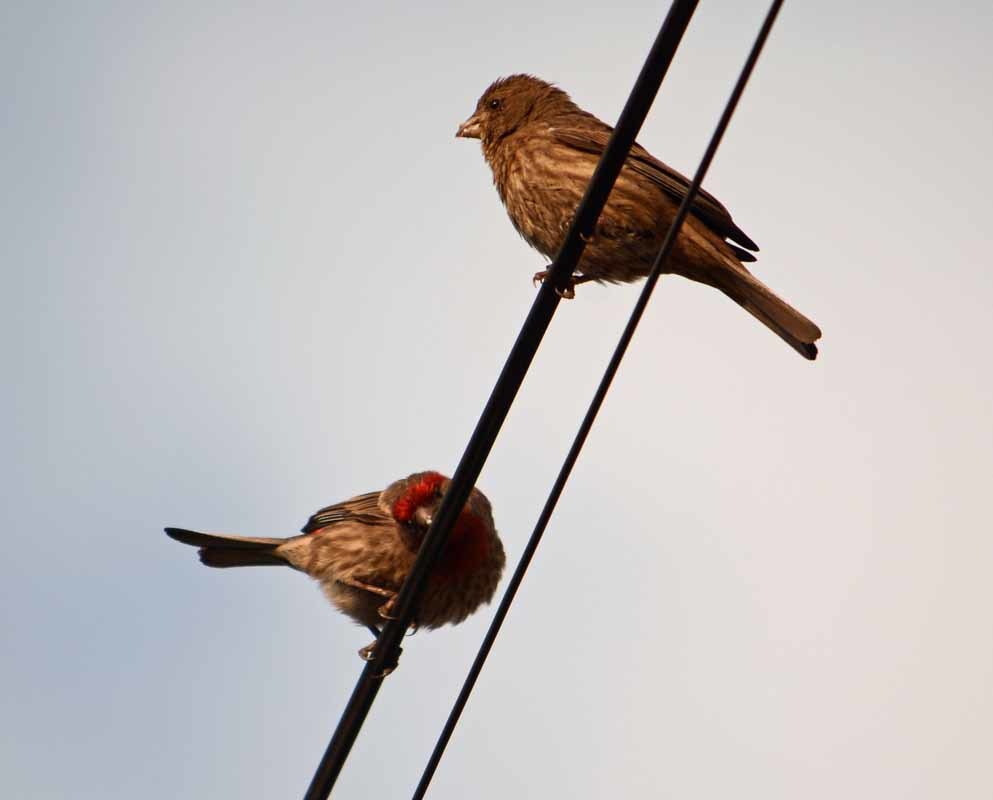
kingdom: Animalia
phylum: Chordata
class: Aves
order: Passeriformes
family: Fringillidae
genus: Haemorhous
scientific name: Haemorhous mexicanus
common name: House finch
